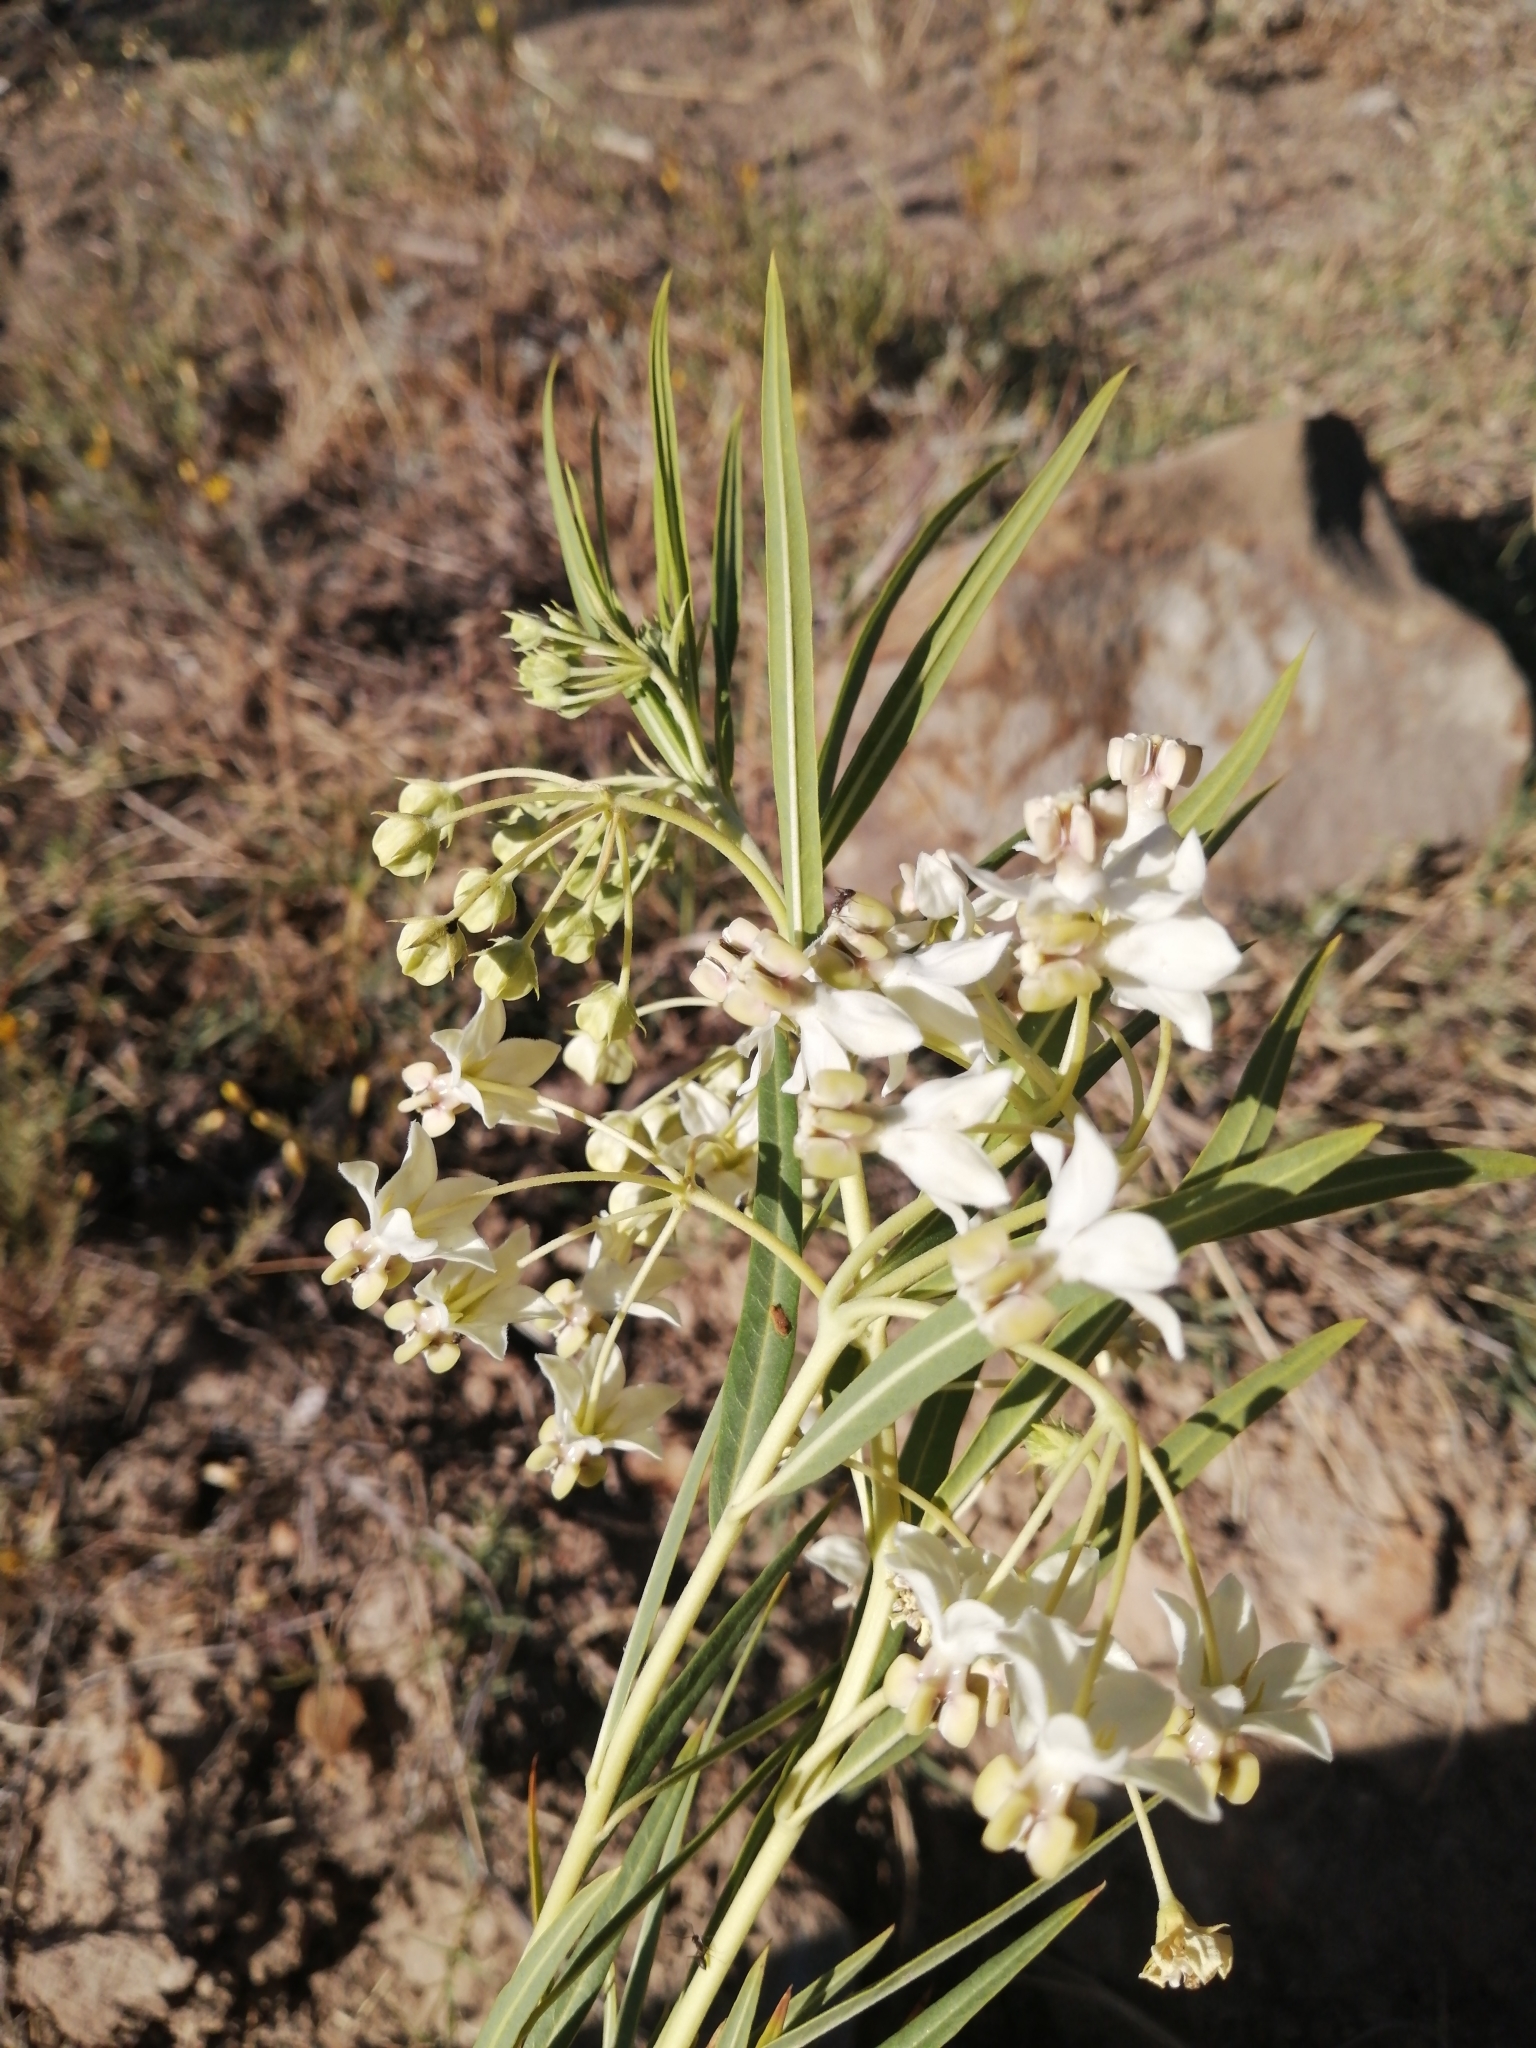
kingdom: Plantae
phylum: Tracheophyta
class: Magnoliopsida
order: Gentianales
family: Apocynaceae
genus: Gomphocarpus
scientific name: Gomphocarpus fruticosus
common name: Milkweed
